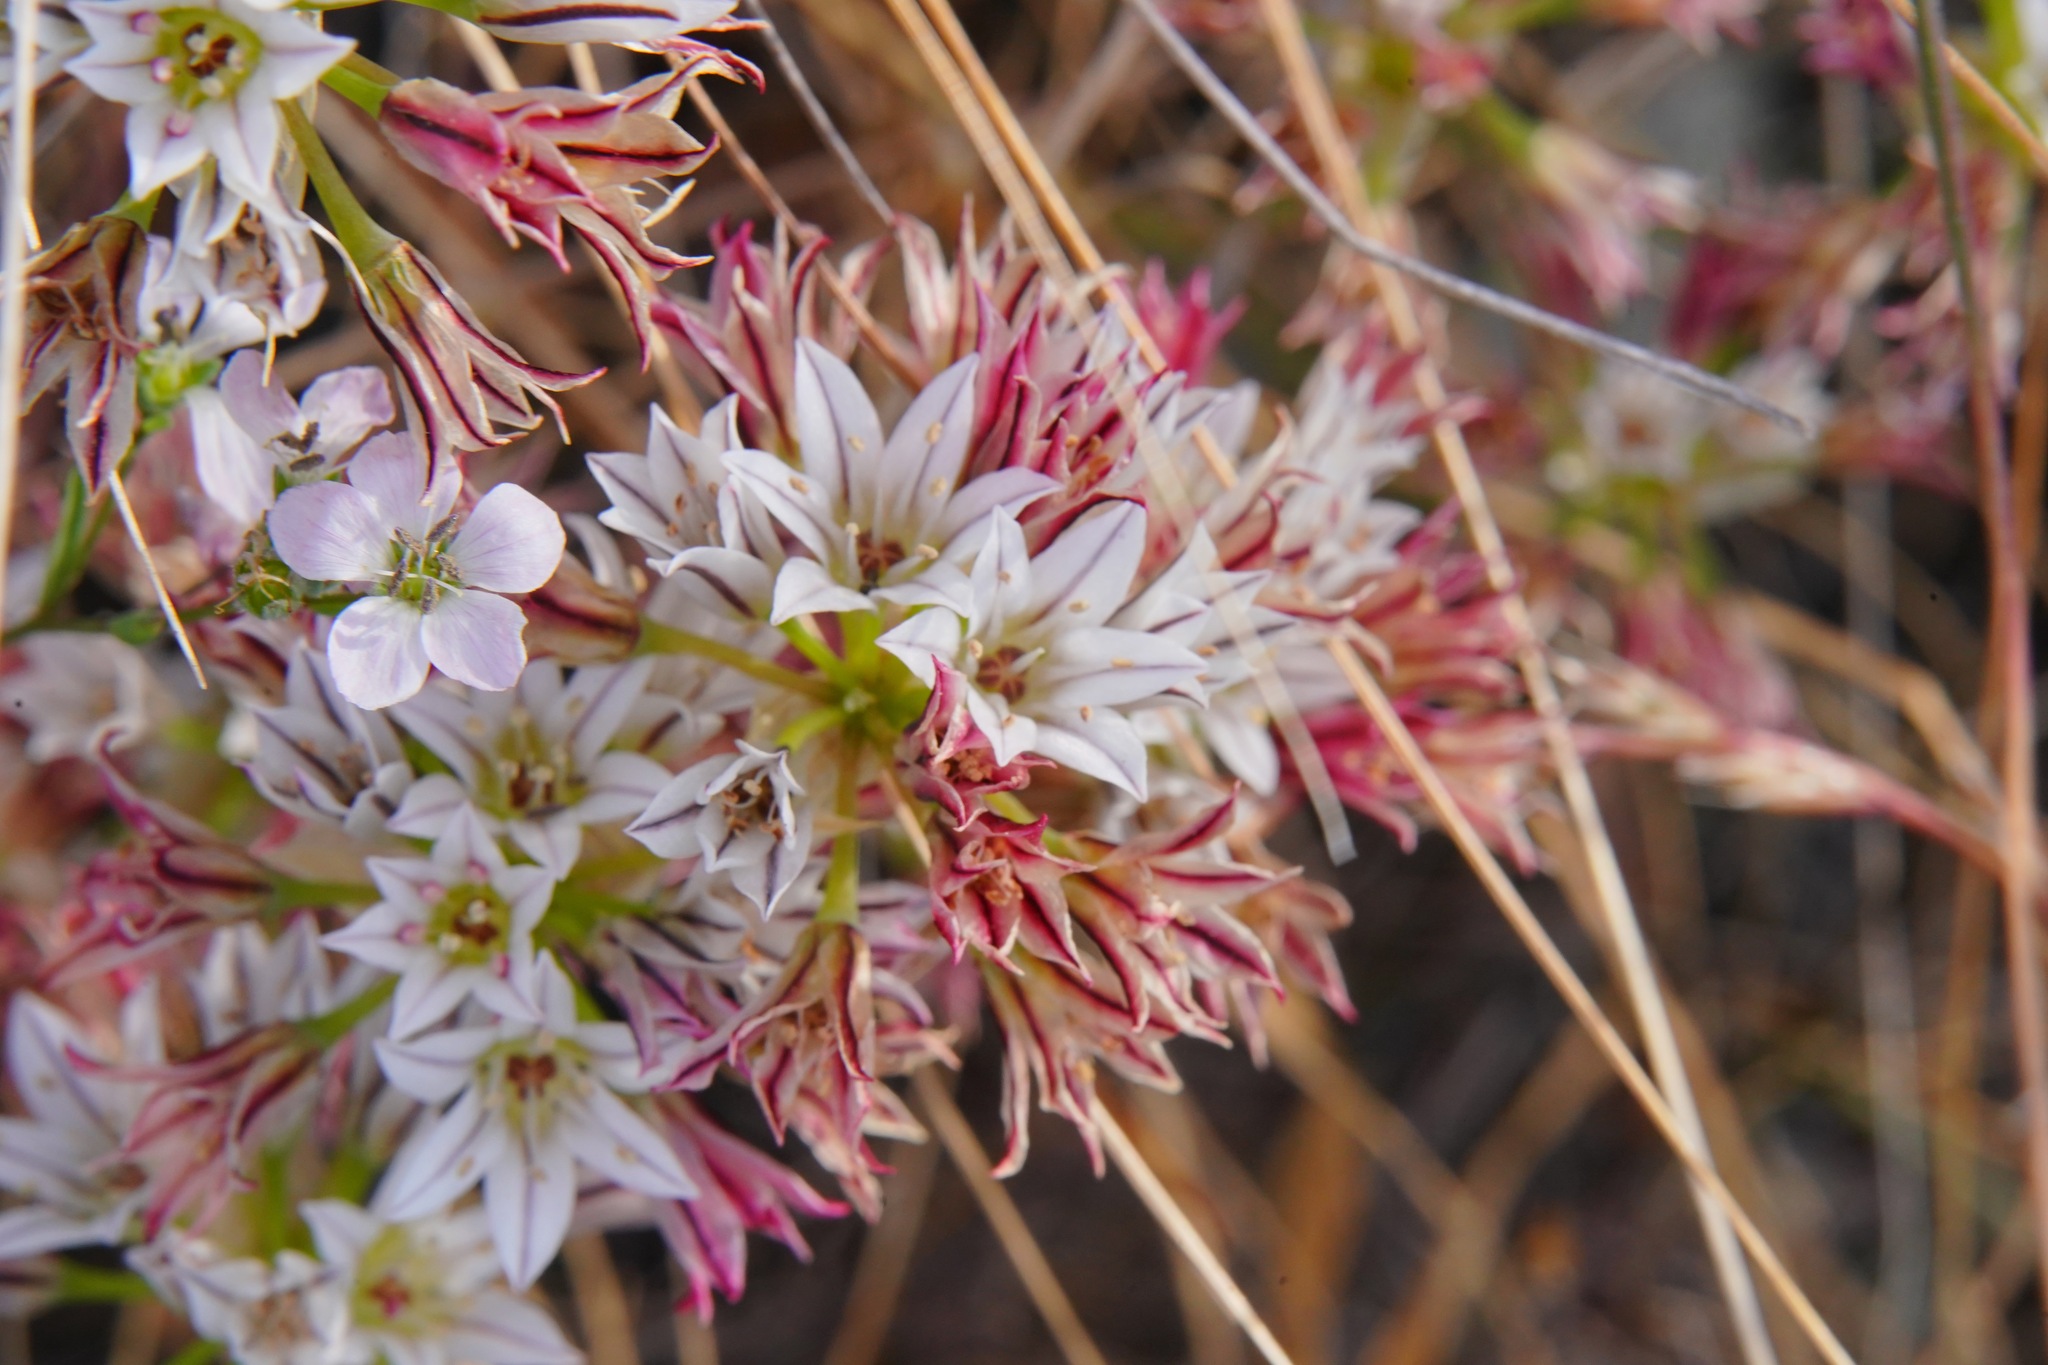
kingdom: Plantae
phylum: Tracheophyta
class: Liliopsida
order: Asparagales
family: Amaryllidaceae
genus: Allium
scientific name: Allium lacunosum
